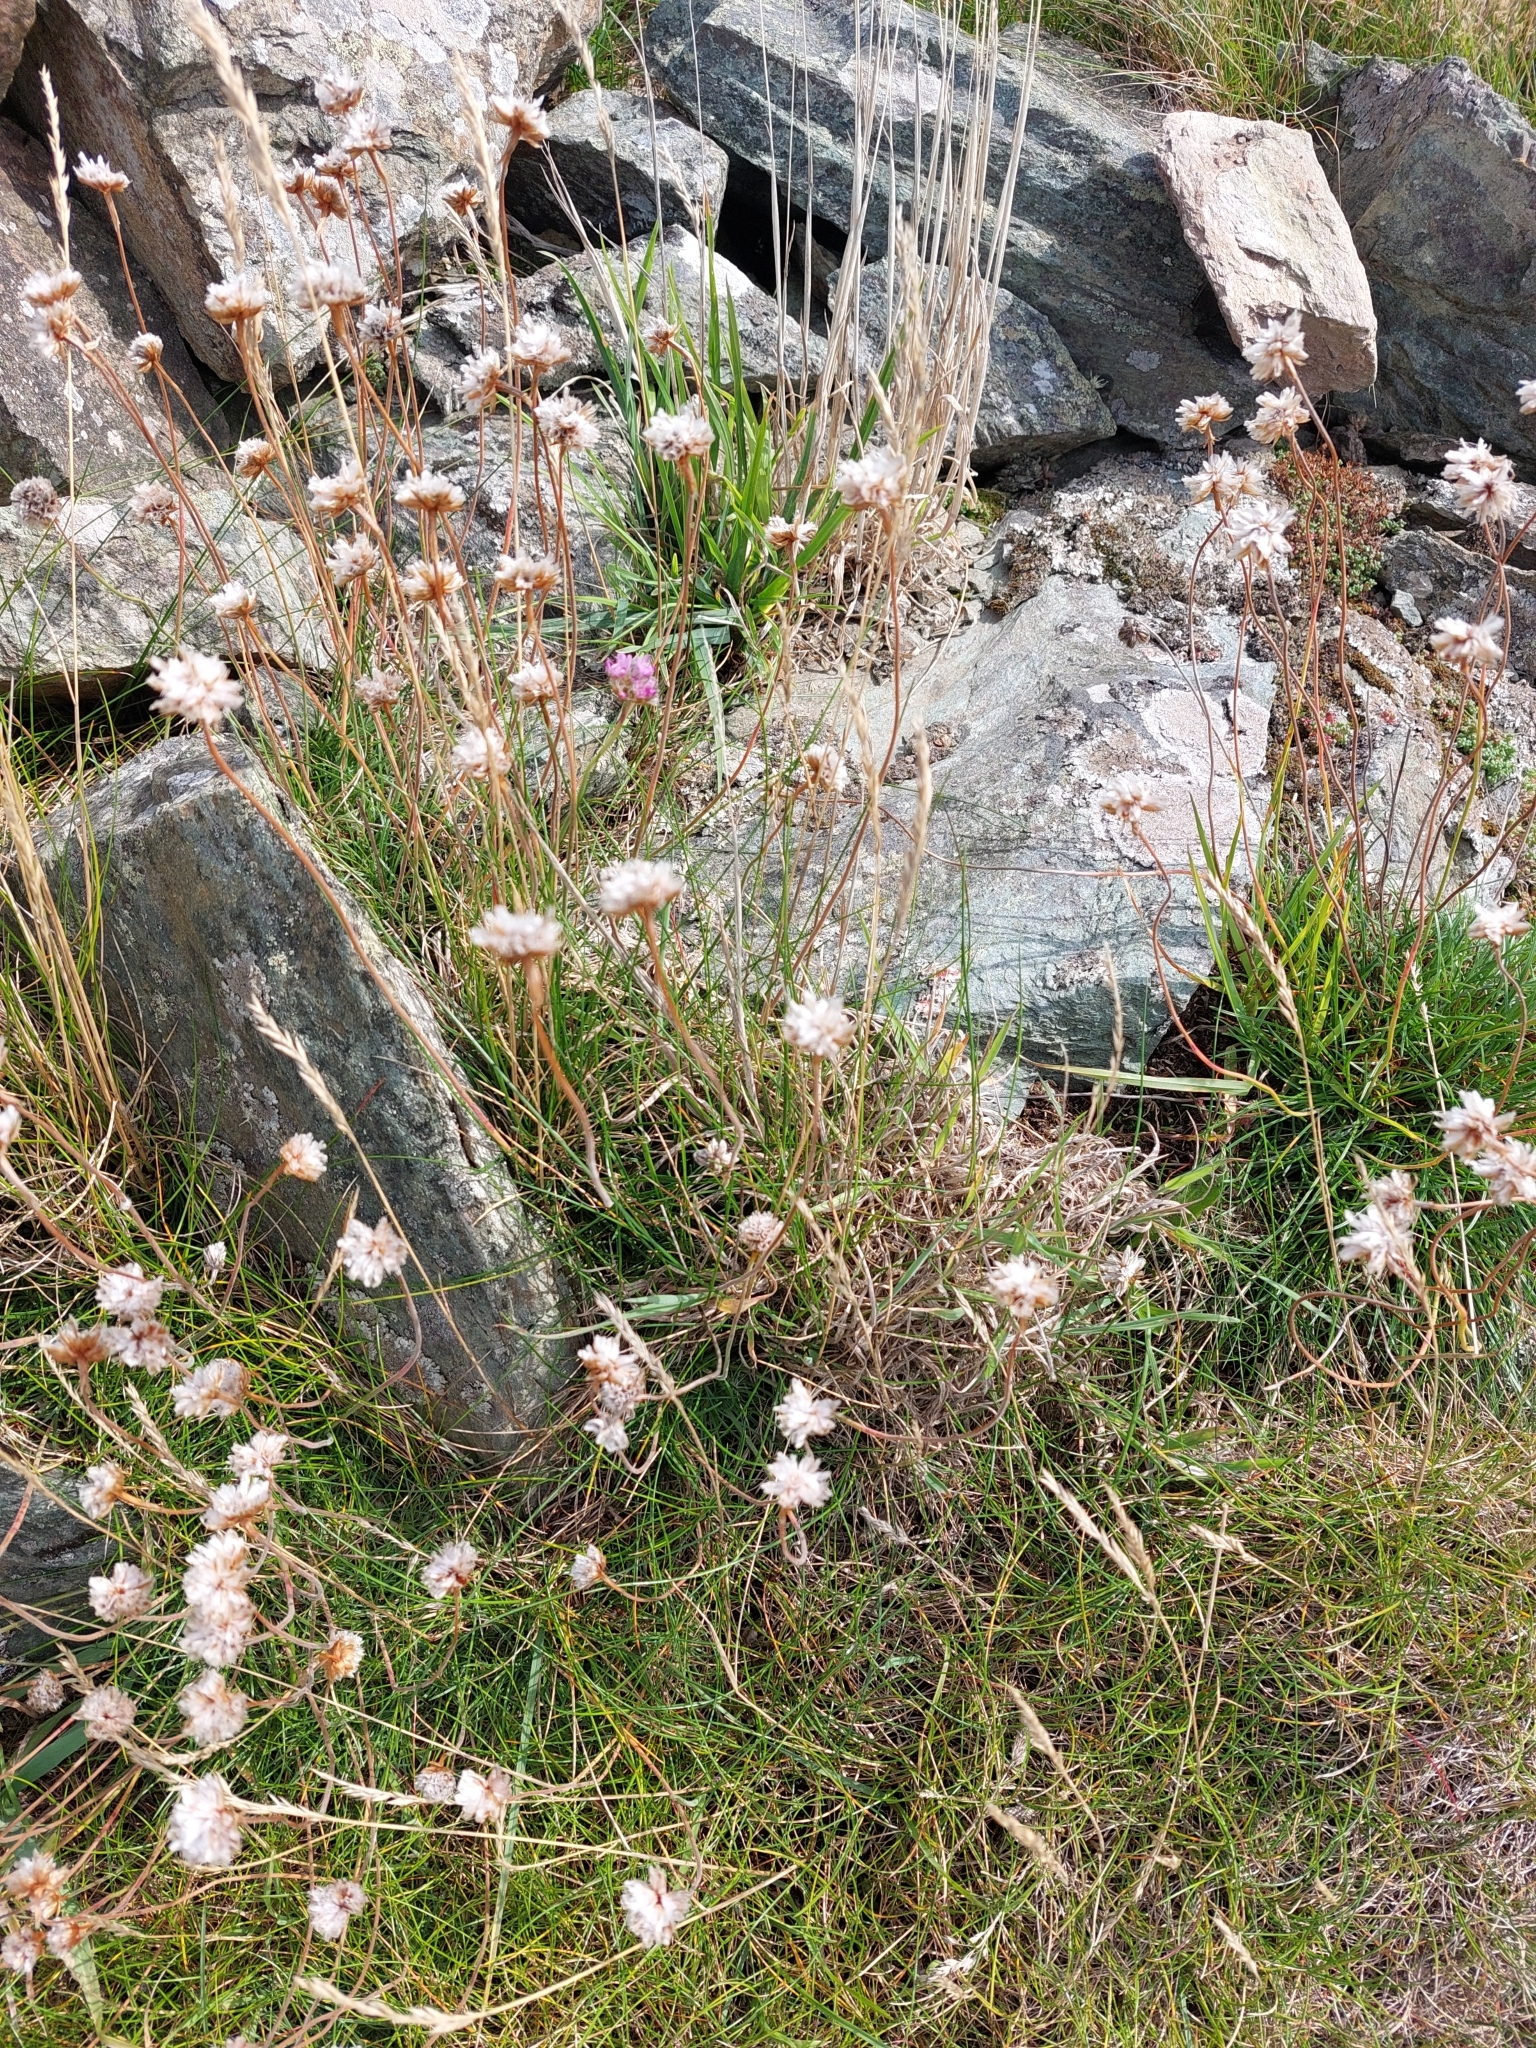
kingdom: Plantae
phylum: Tracheophyta
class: Magnoliopsida
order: Caryophyllales
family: Plumbaginaceae
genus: Armeria
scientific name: Armeria maritima
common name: Thrift
